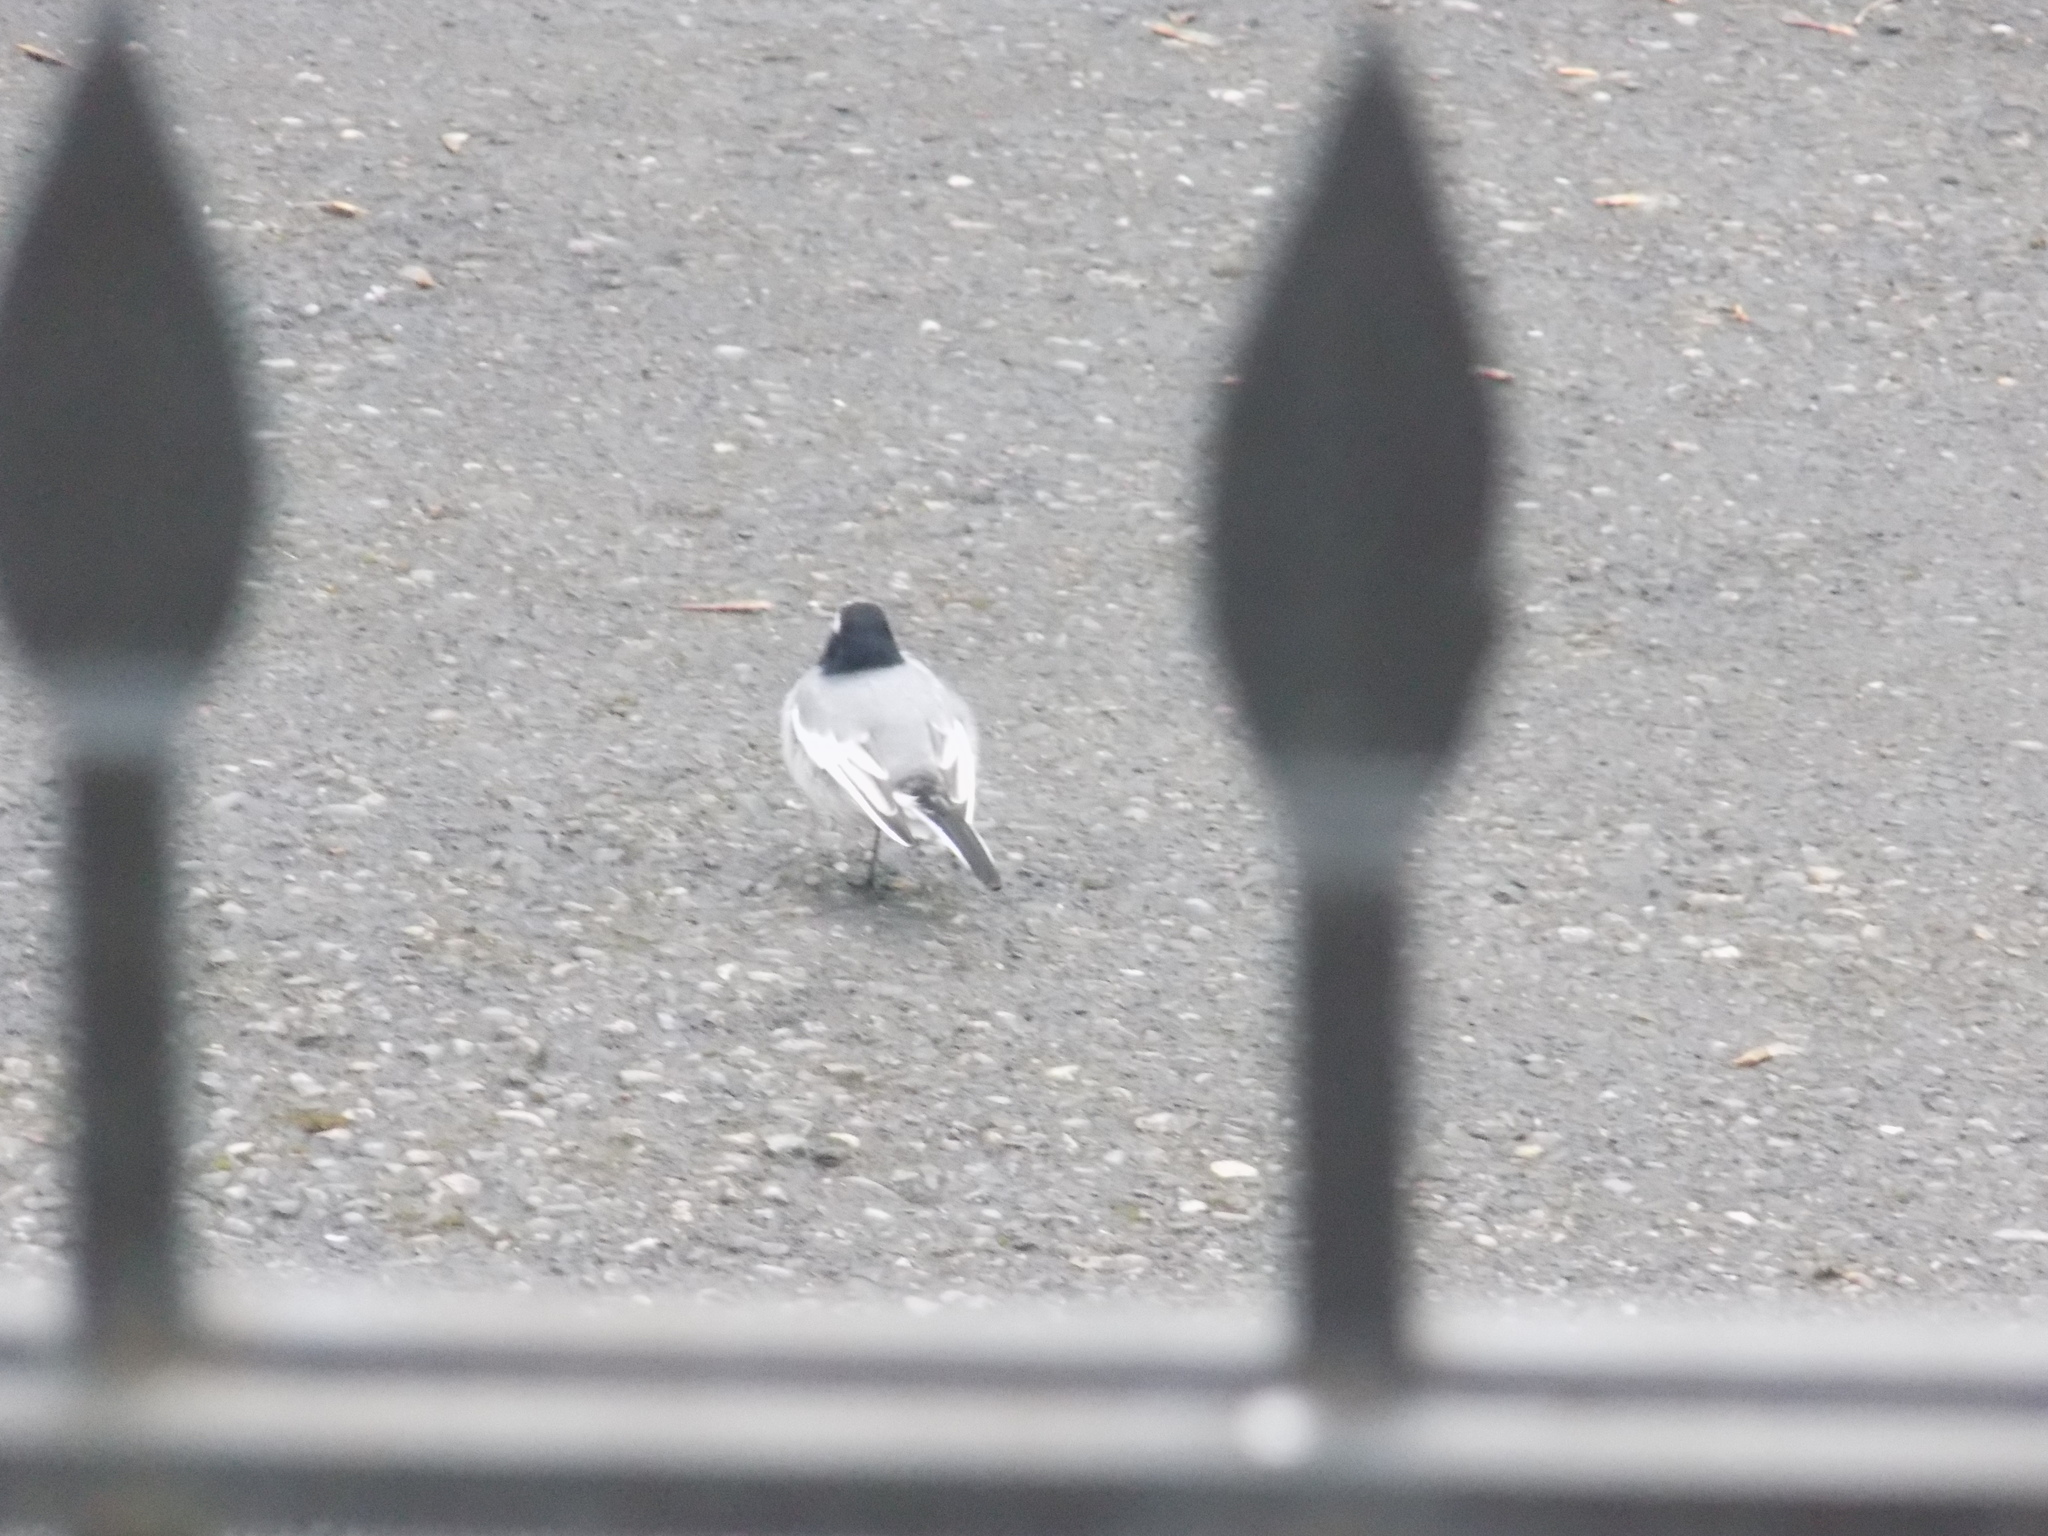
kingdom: Animalia
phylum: Chordata
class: Aves
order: Passeriformes
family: Motacillidae
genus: Motacilla
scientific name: Motacilla alba
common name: White wagtail
